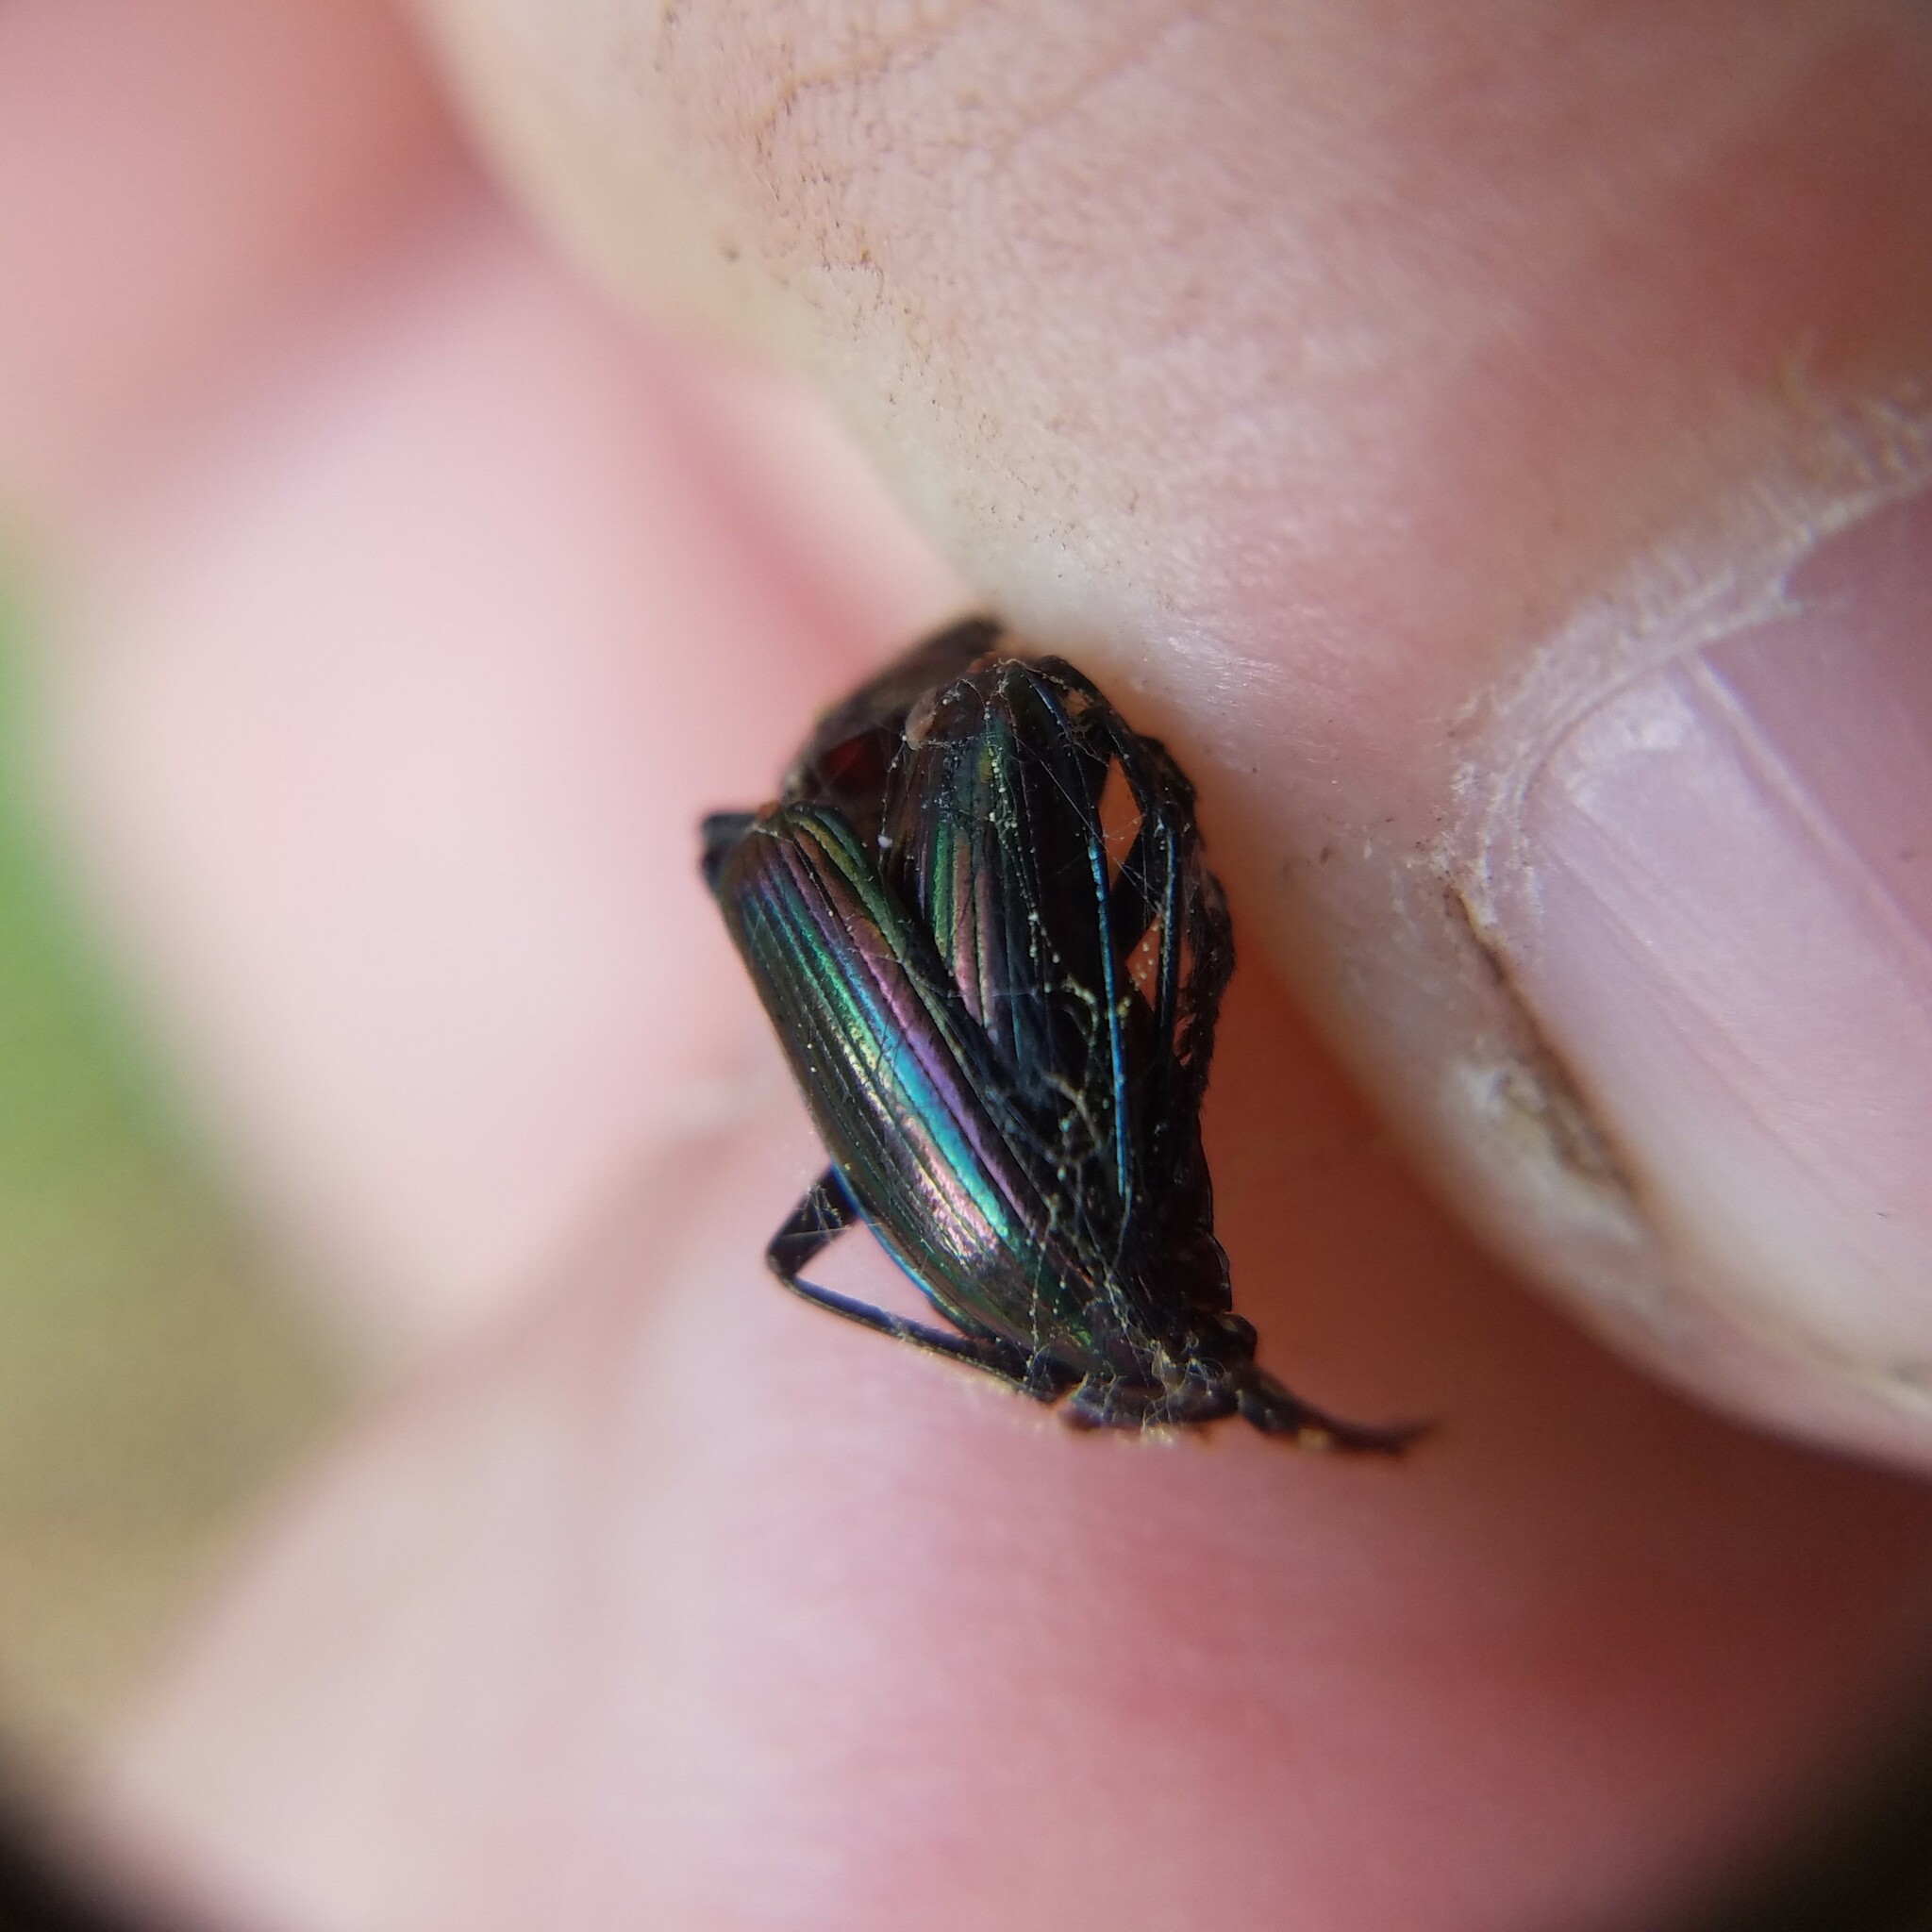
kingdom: Animalia
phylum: Arthropoda
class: Insecta
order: Coleoptera
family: Tenebrionidae
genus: Tarpela
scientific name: Tarpela micans
